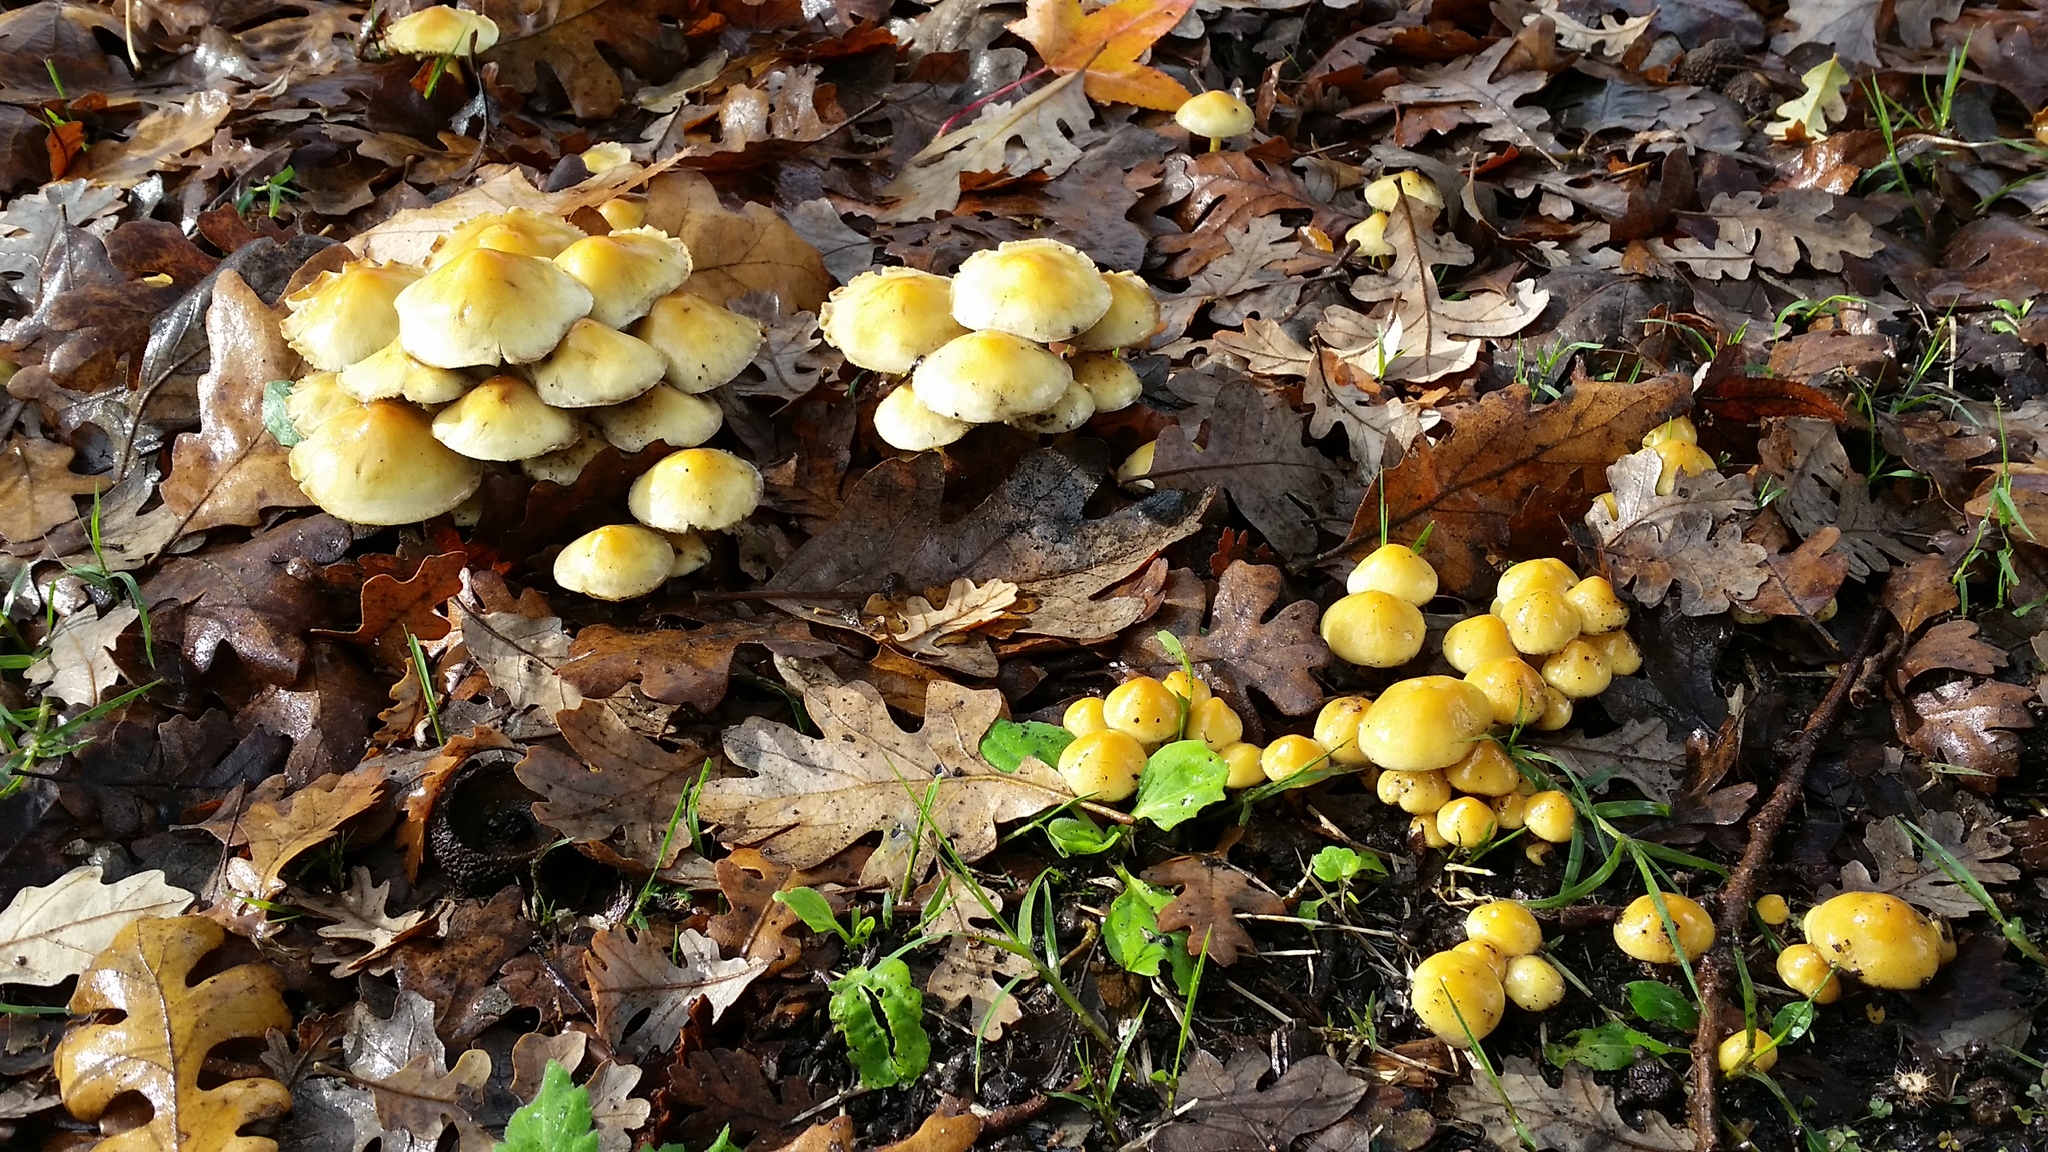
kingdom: Fungi
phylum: Basidiomycota
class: Agaricomycetes
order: Agaricales
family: Strophariaceae
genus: Hypholoma
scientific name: Hypholoma fasciculare
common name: Sulphur tuft
